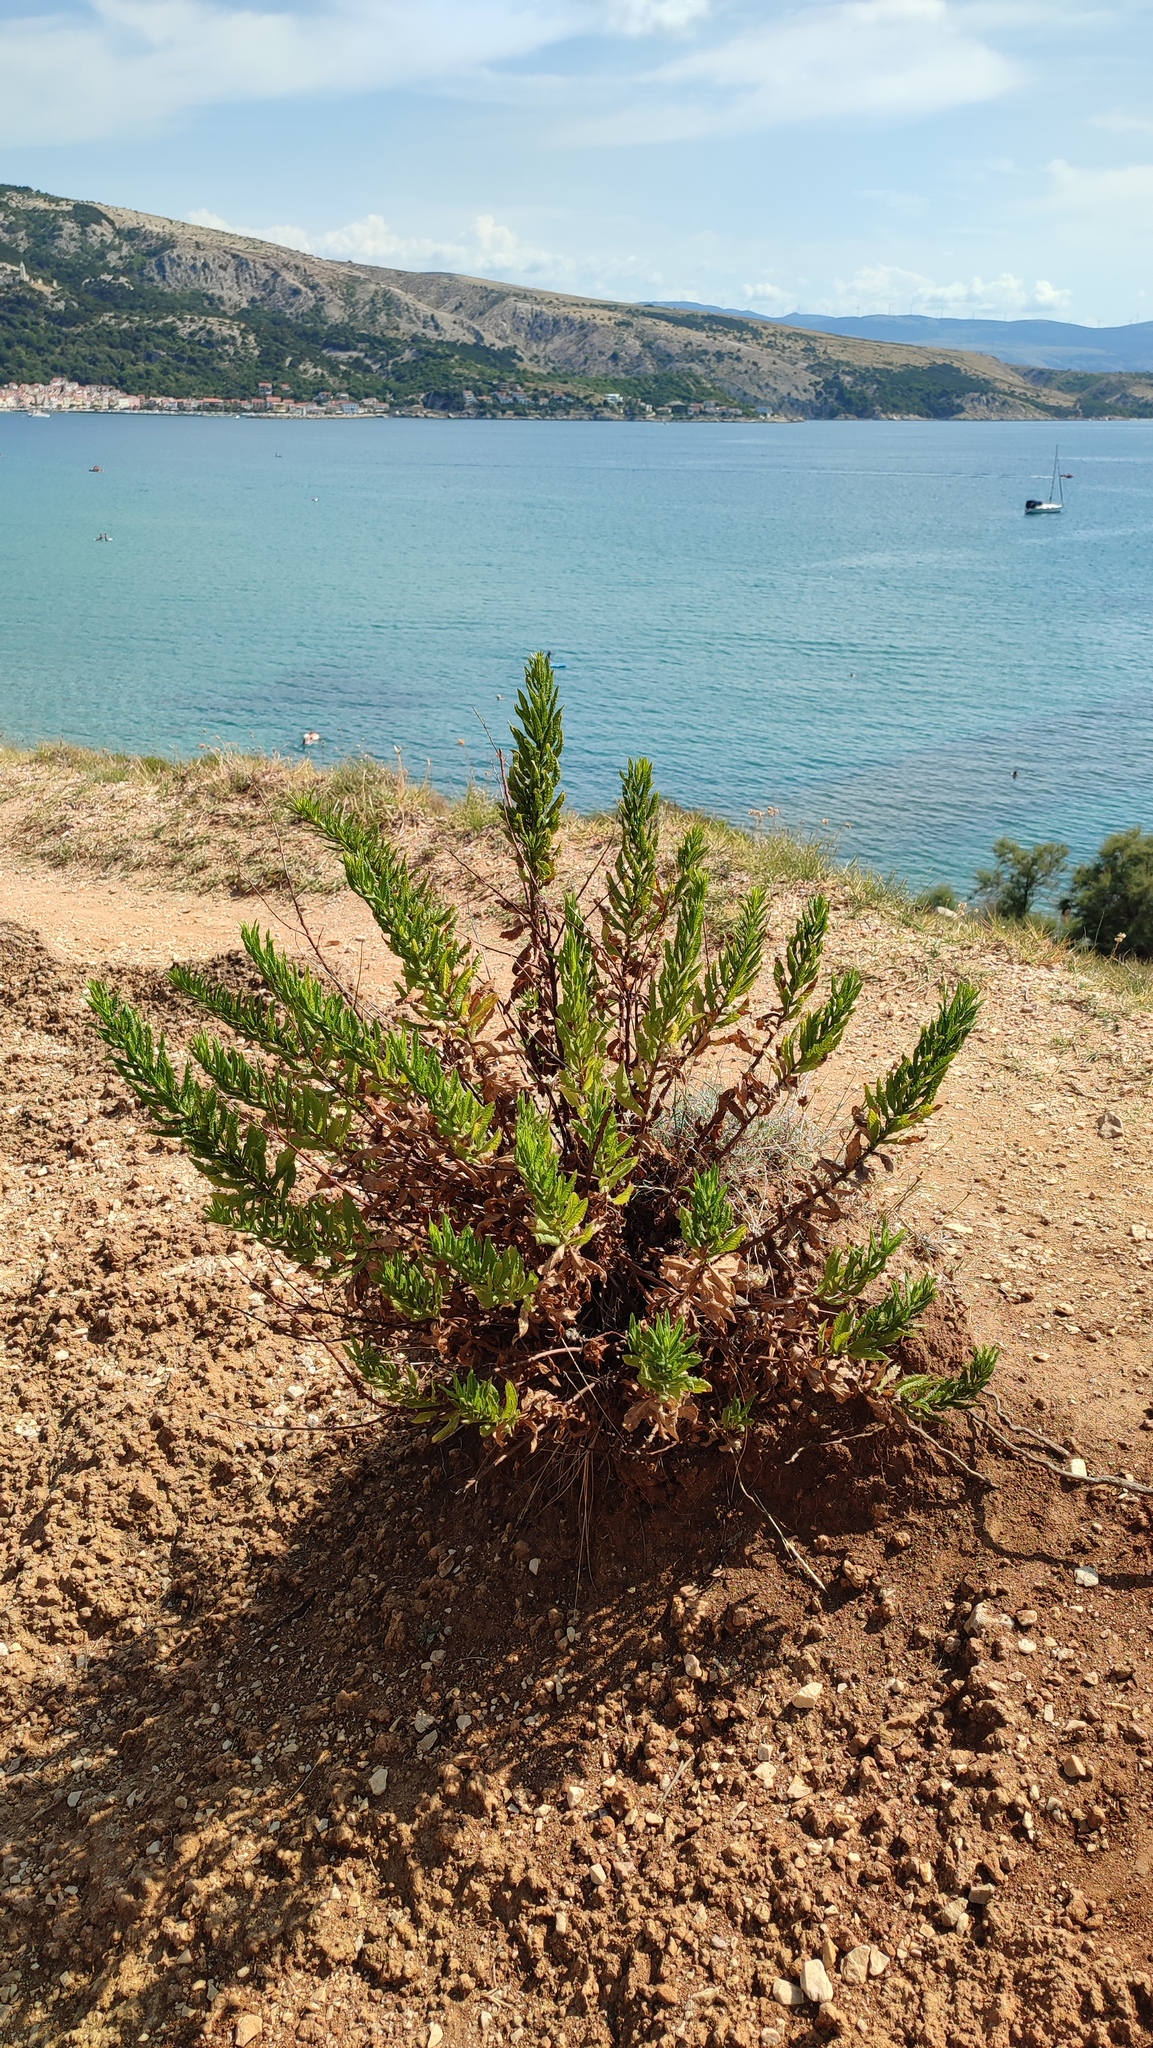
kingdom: Plantae
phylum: Tracheophyta
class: Magnoliopsida
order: Asterales
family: Asteraceae
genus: Dittrichia
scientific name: Dittrichia viscosa
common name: Woody fleabane
